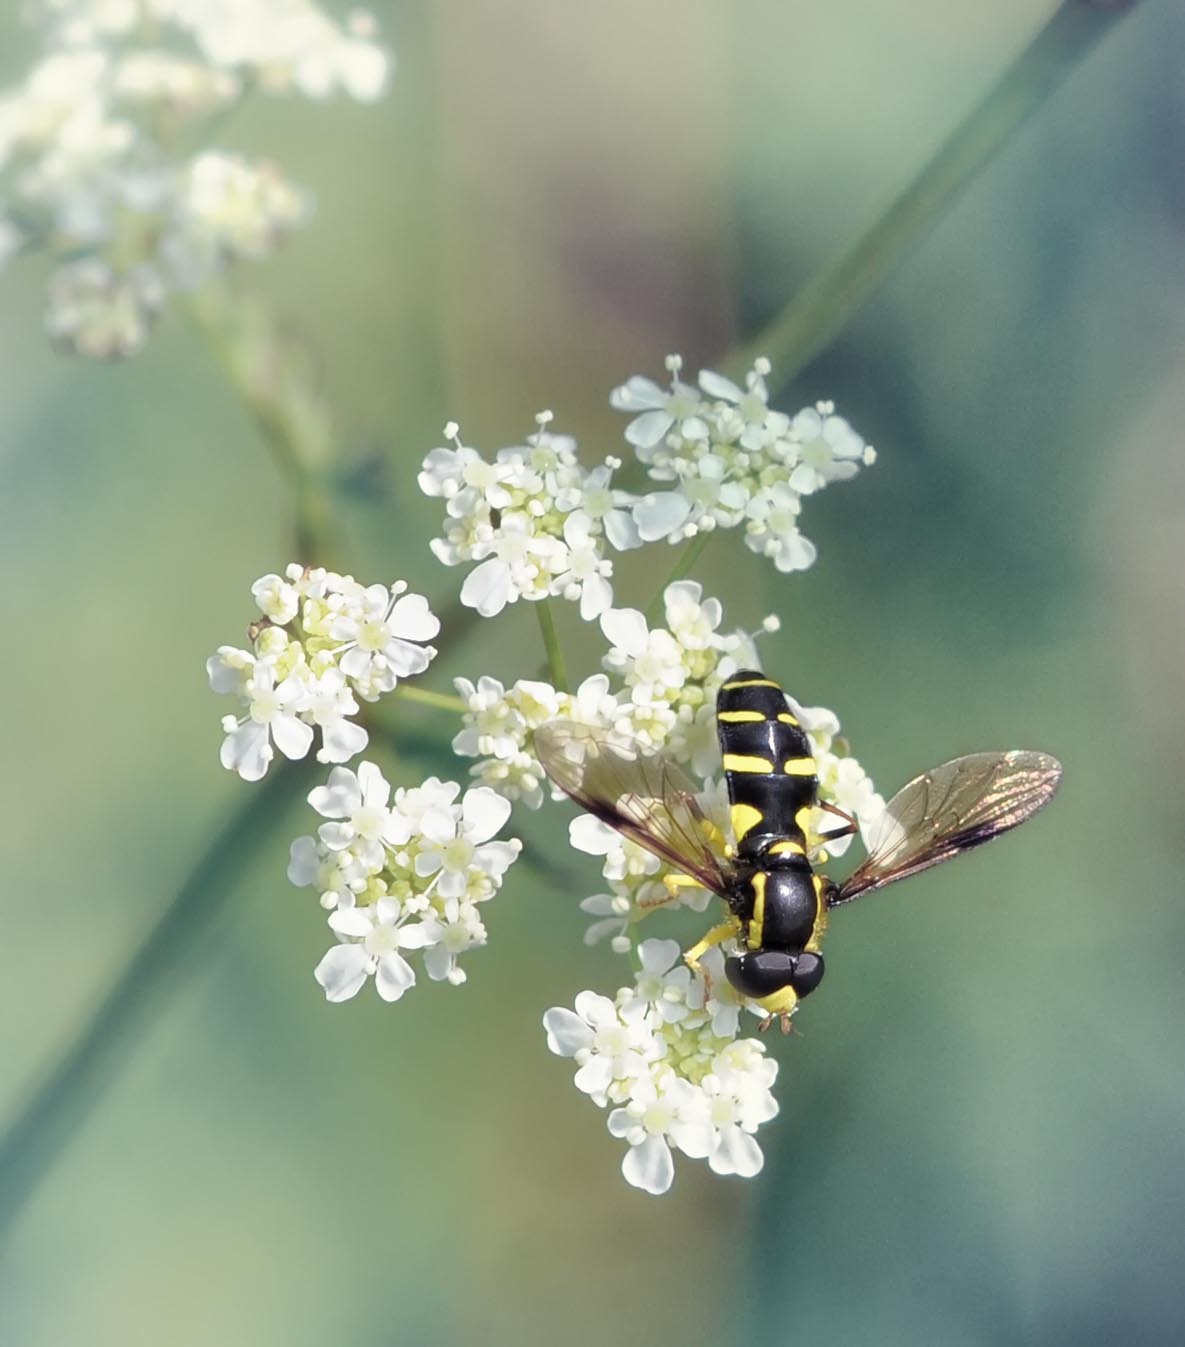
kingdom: Animalia
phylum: Arthropoda
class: Insecta
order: Diptera
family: Syrphidae
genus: Philhelius
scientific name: Philhelius pedissequum
